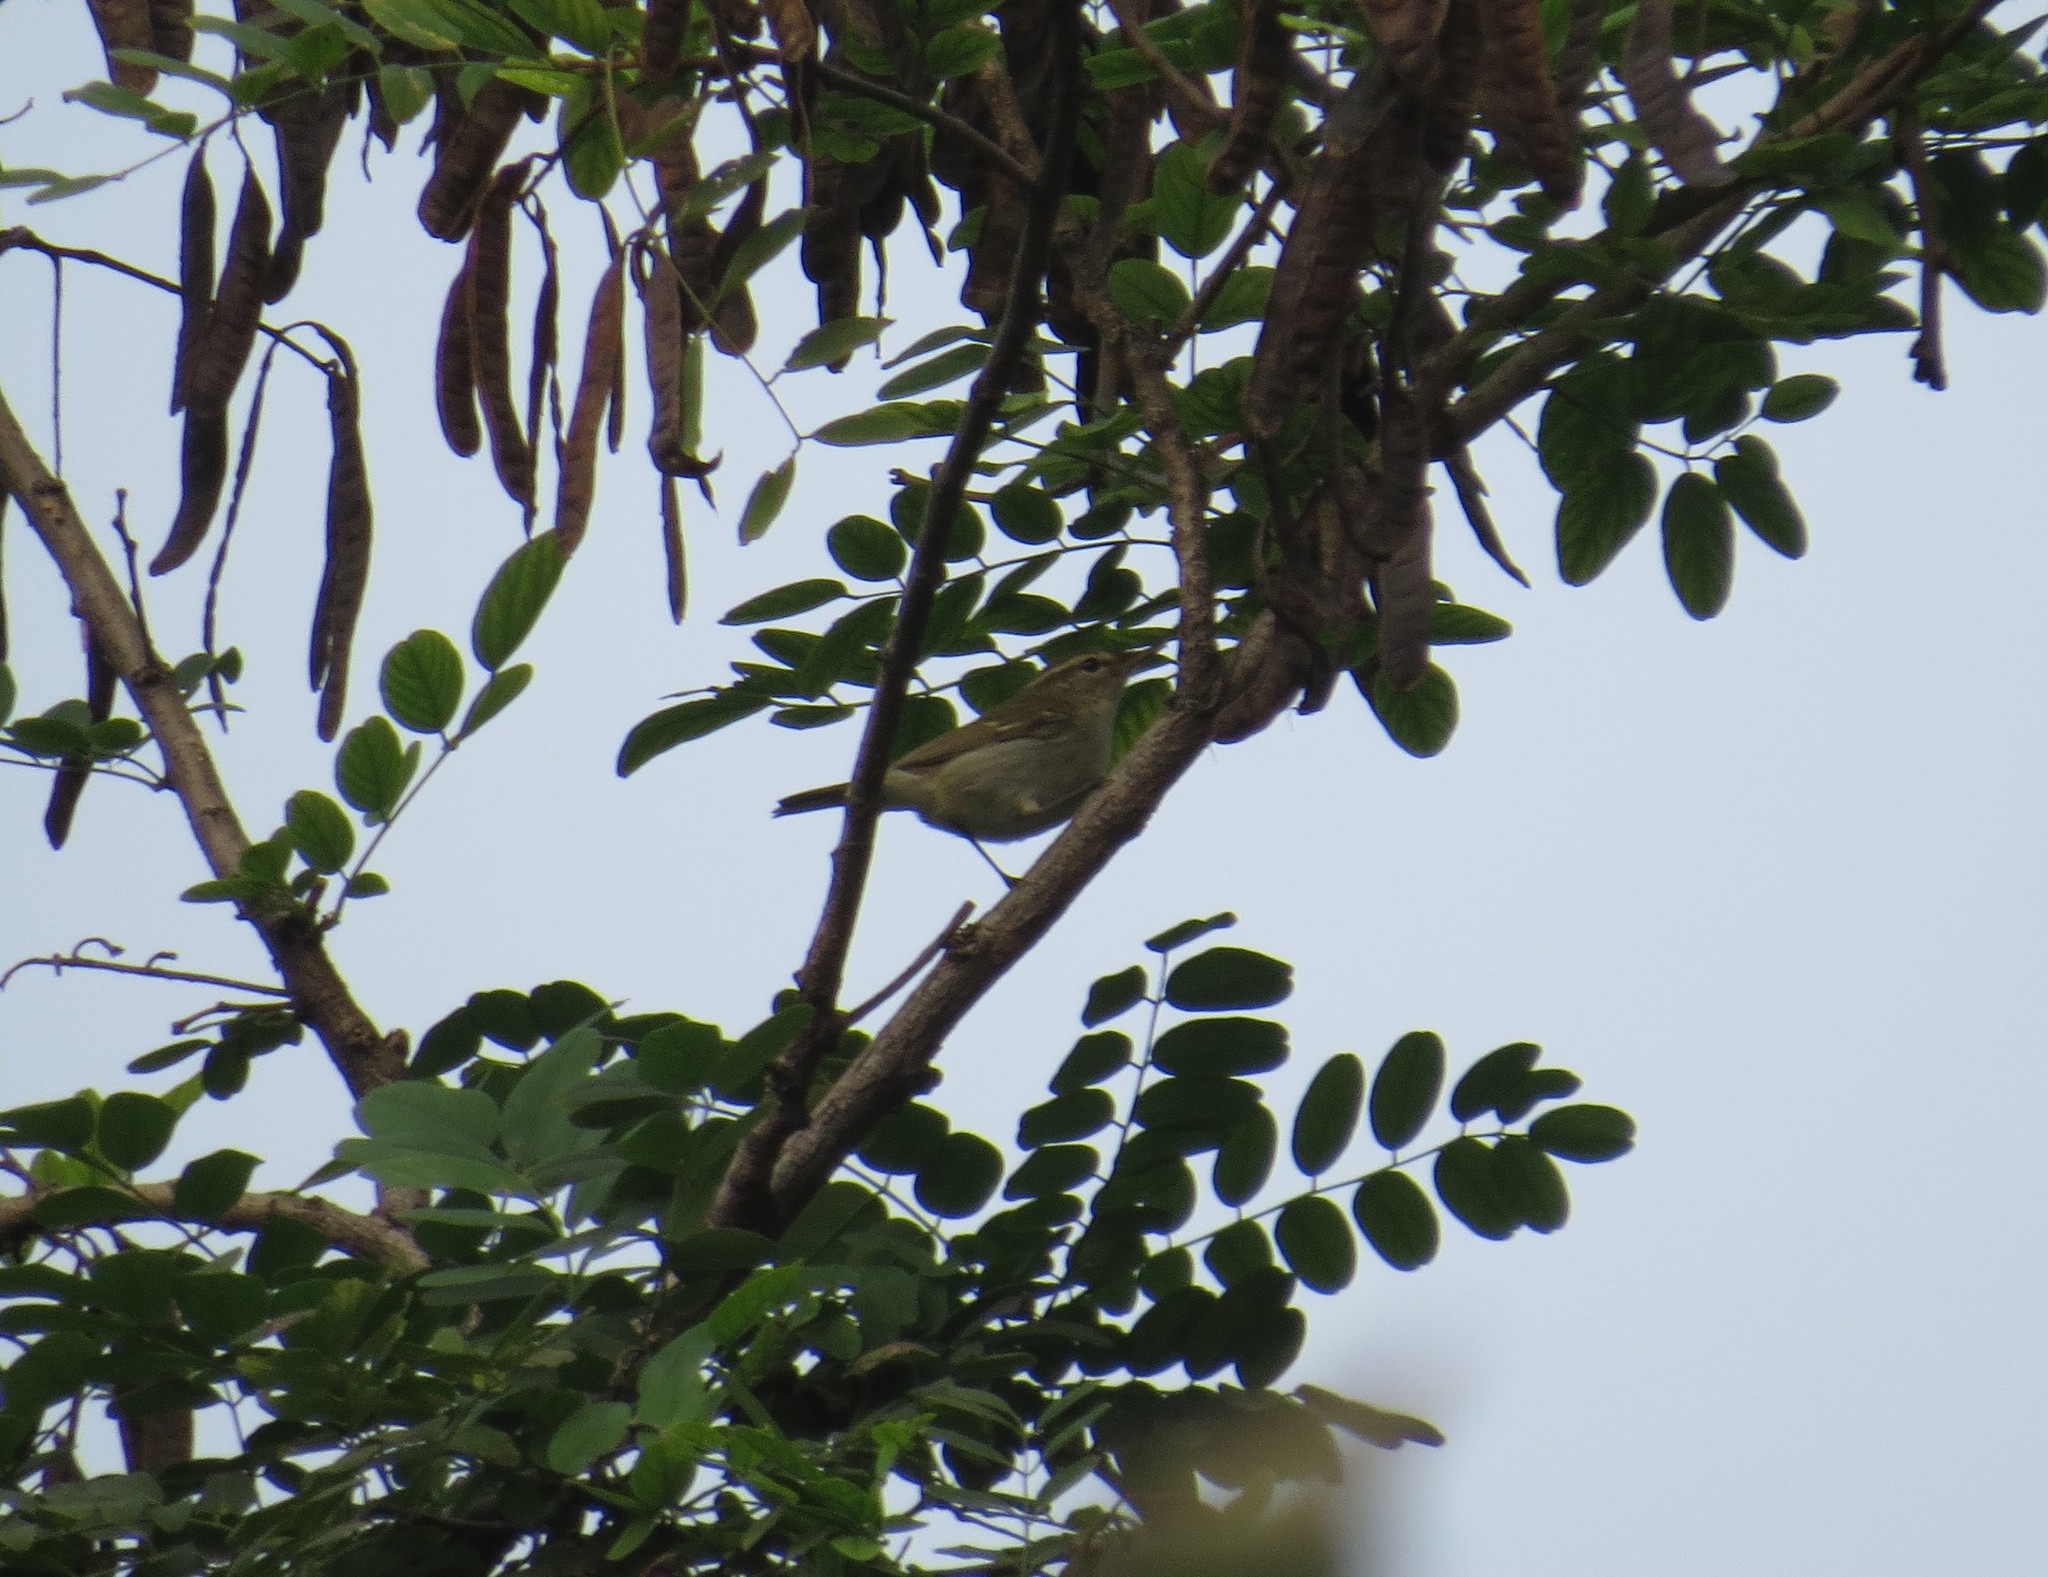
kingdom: Animalia
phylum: Chordata
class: Aves
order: Passeriformes
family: Phylloscopidae
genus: Phylloscopus
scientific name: Phylloscopus borealis
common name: Arctic warbler
